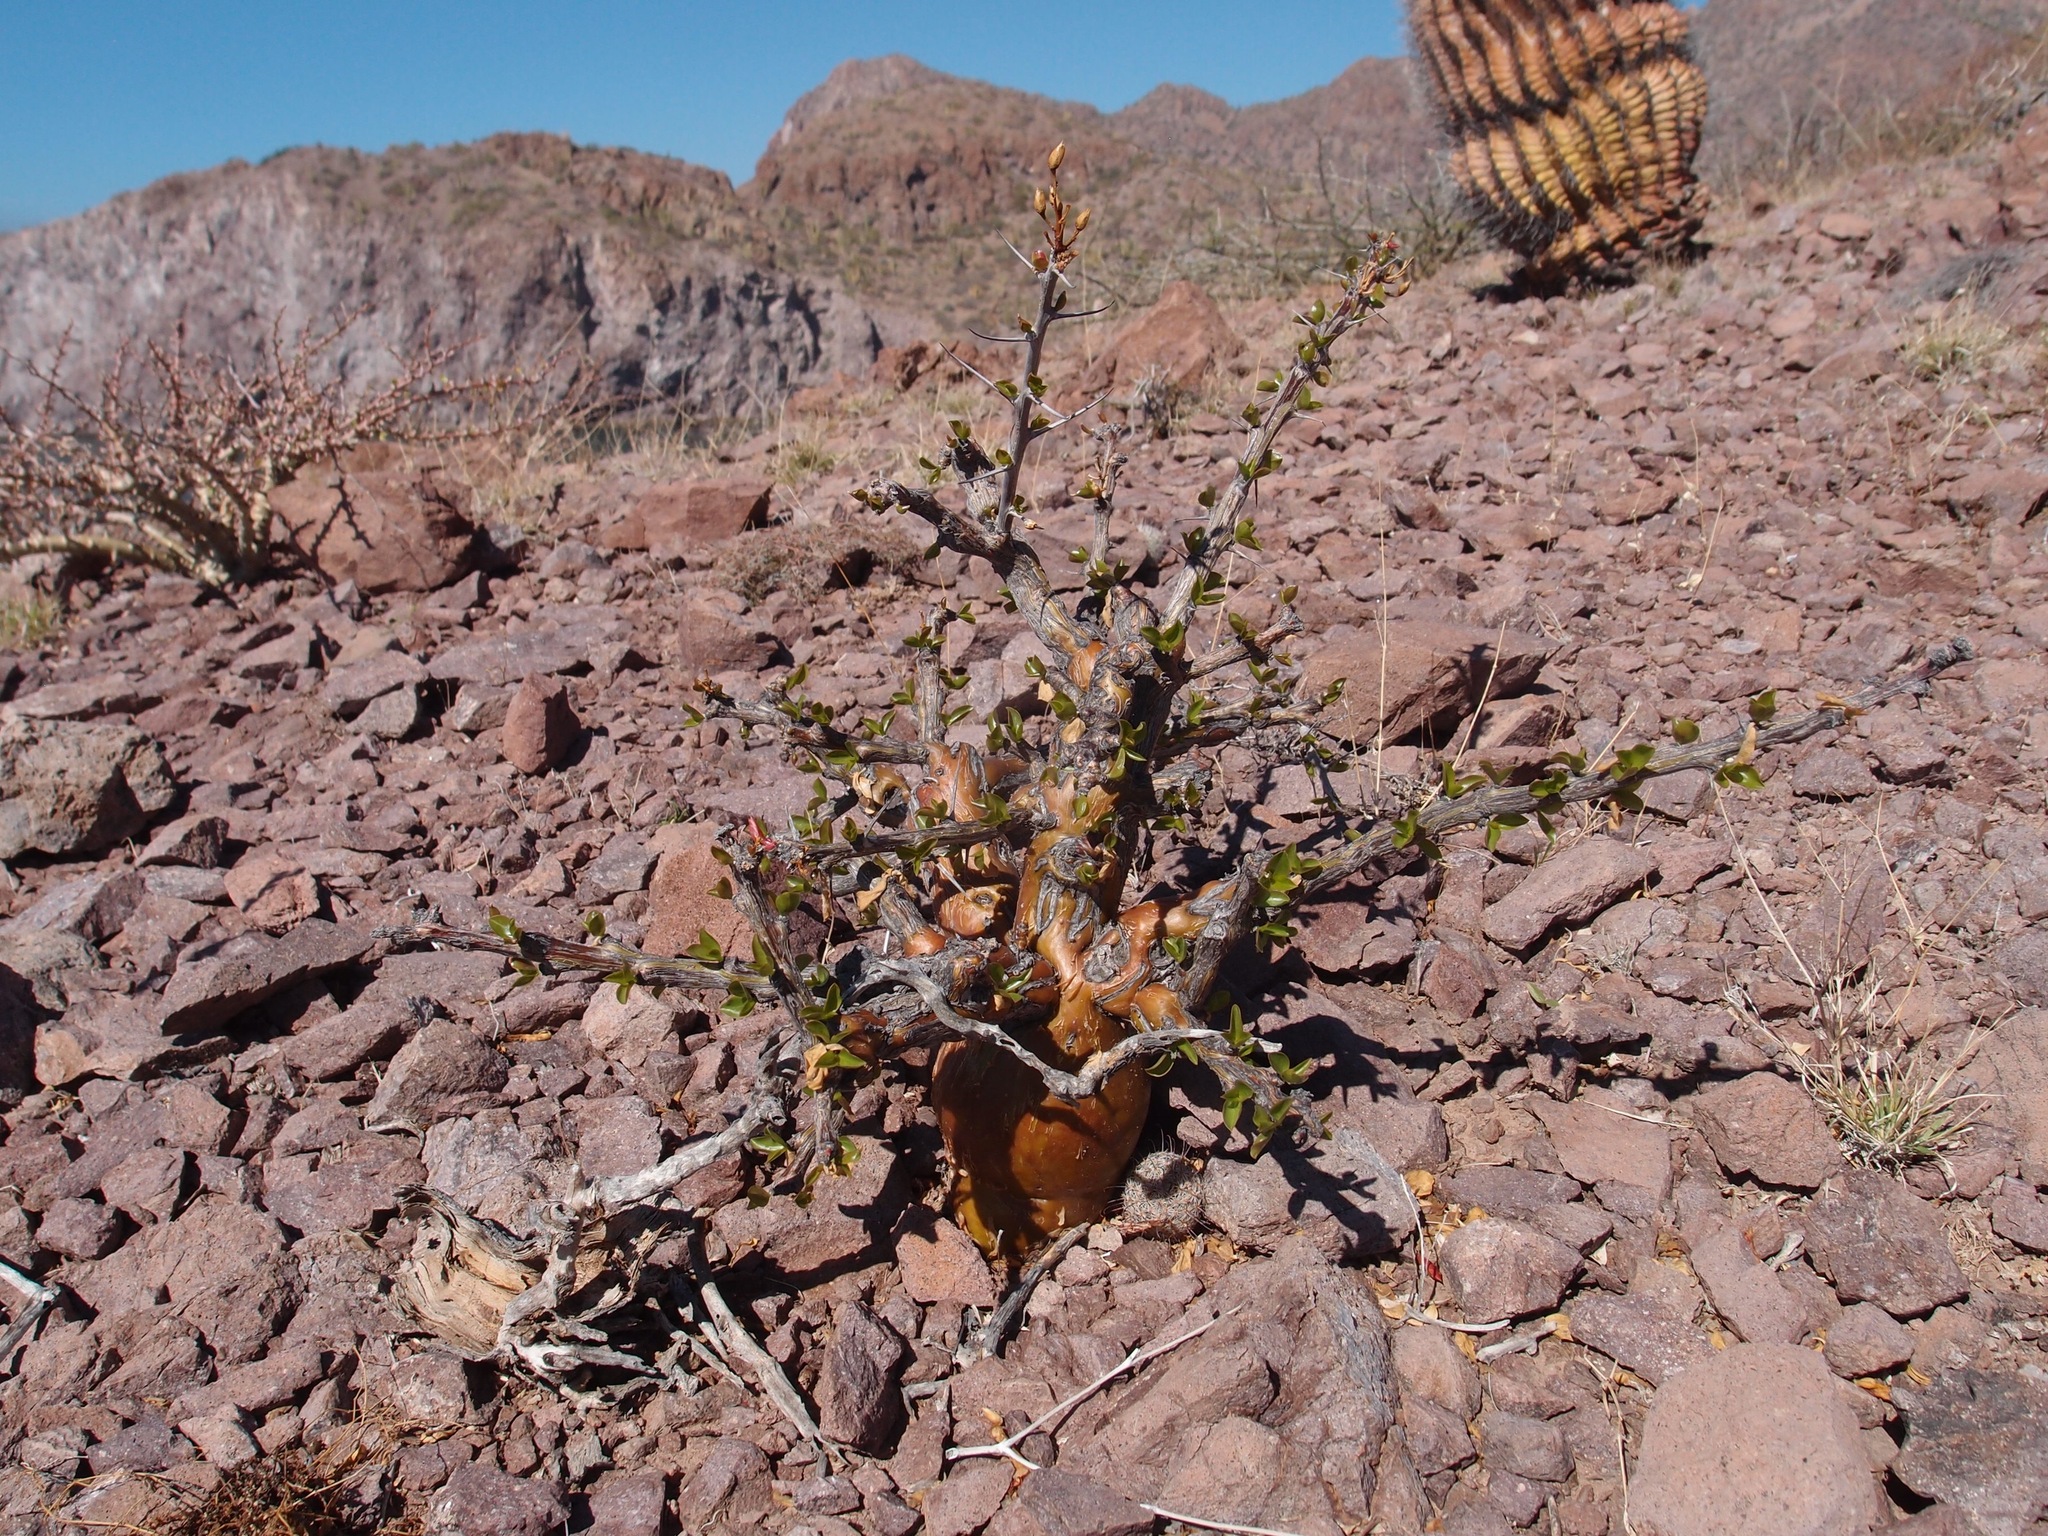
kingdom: Plantae
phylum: Tracheophyta
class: Magnoliopsida
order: Ericales
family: Fouquieriaceae
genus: Fouquieria
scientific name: Fouquieria diguetii
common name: Adam's tree
